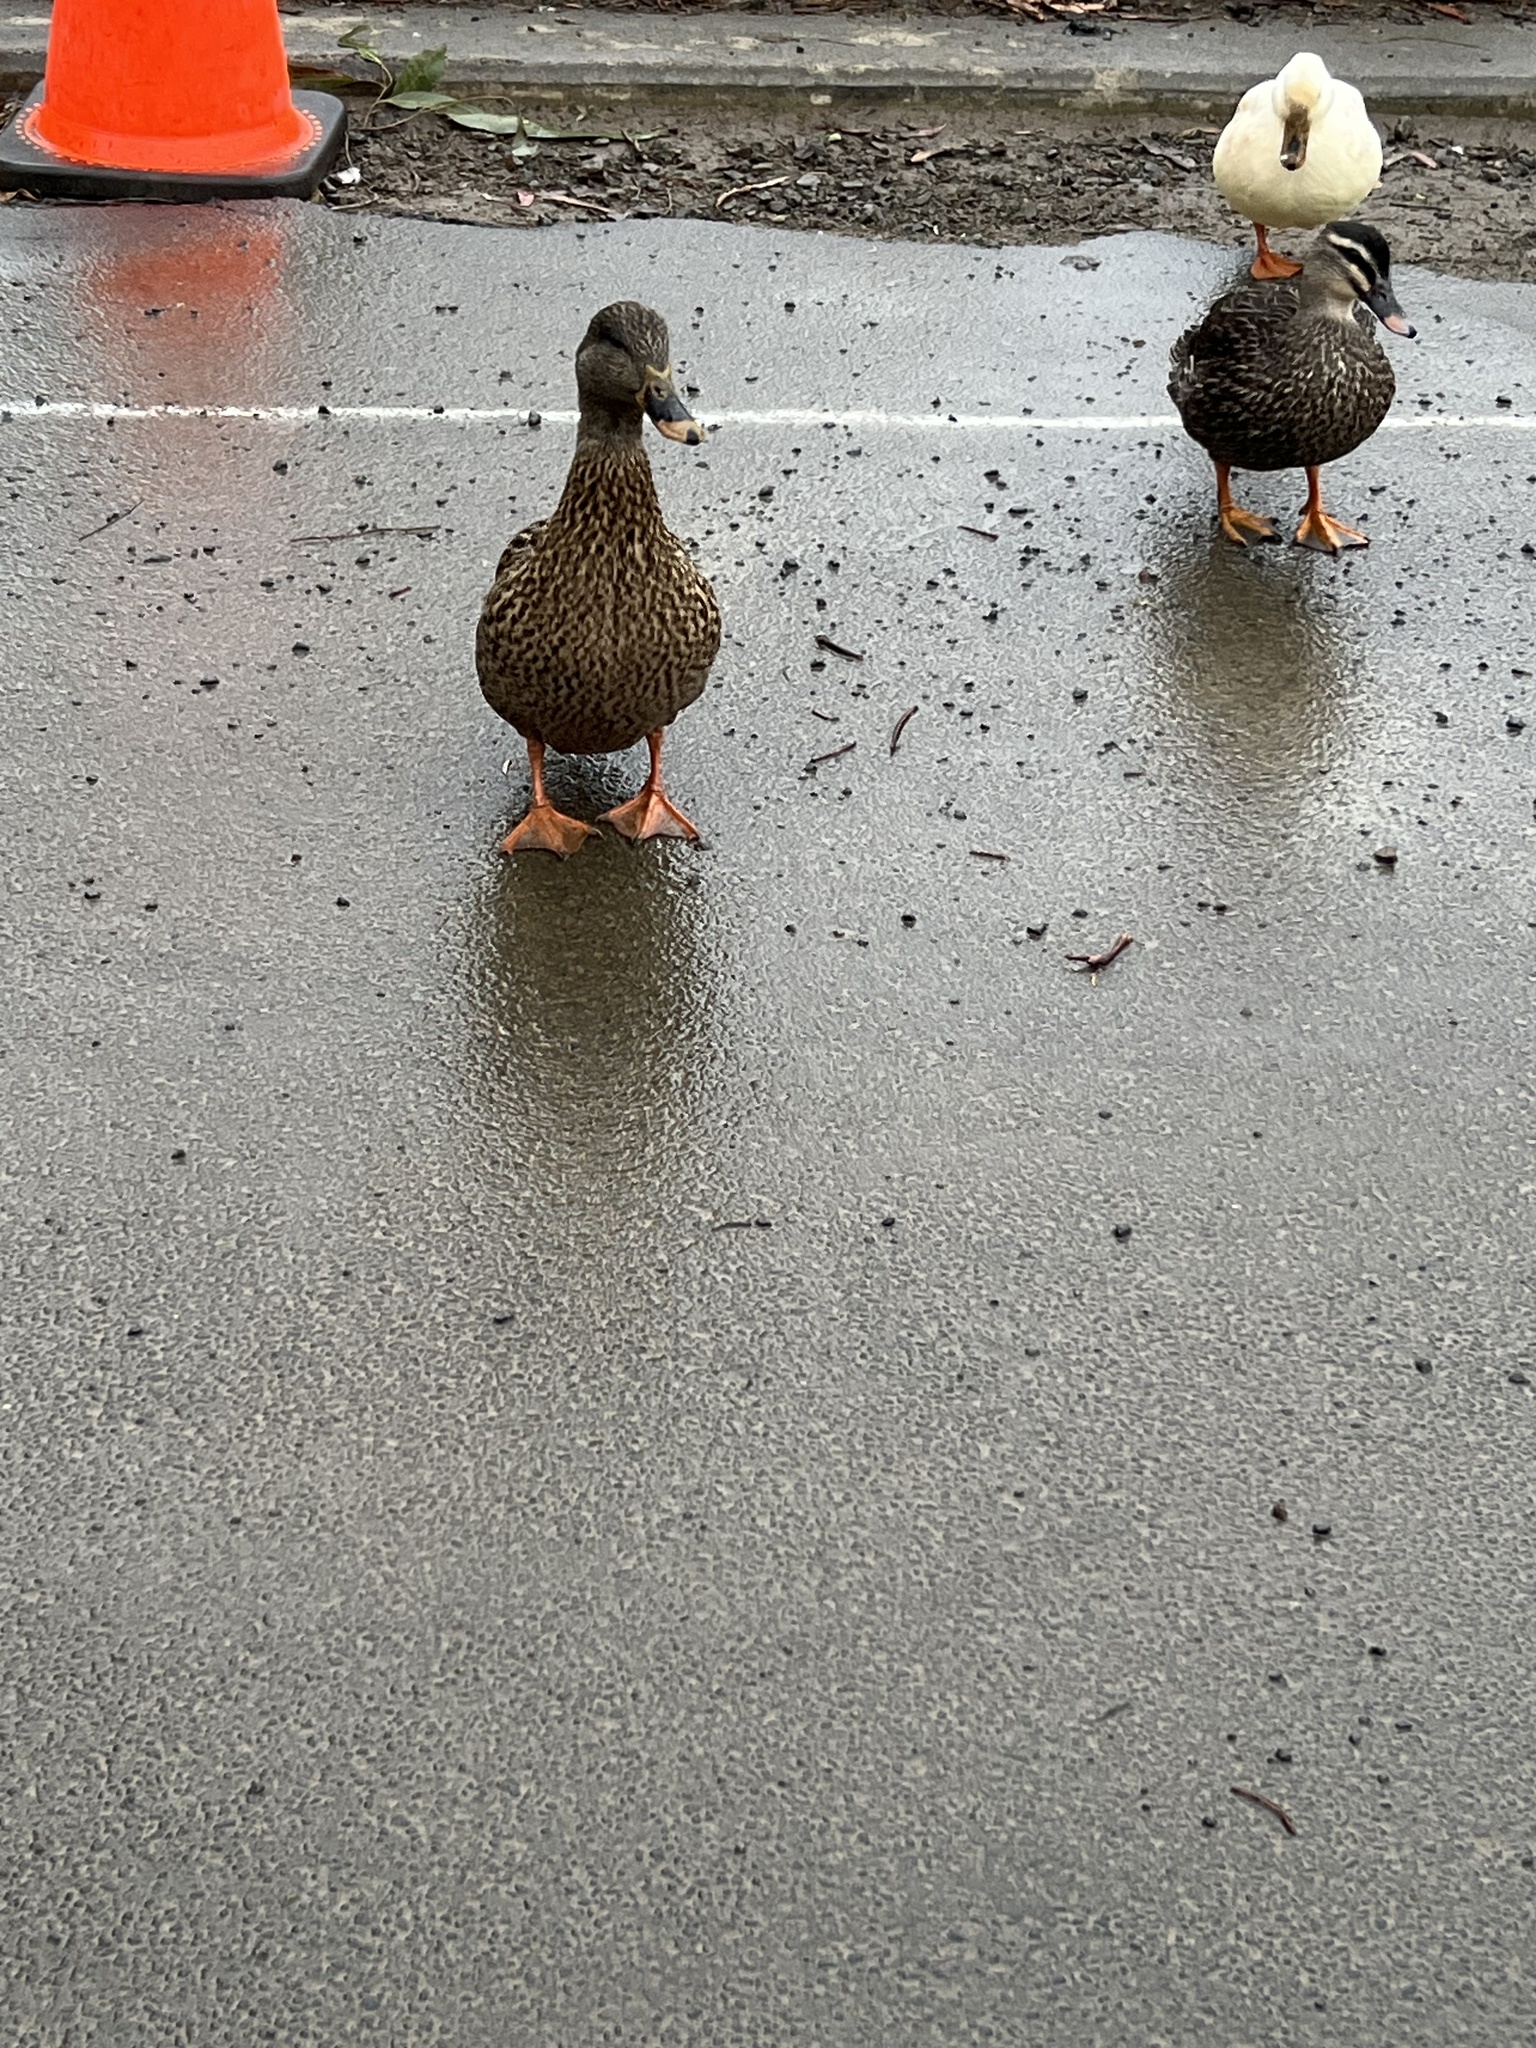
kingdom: Animalia
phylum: Chordata
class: Aves
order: Anseriformes
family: Anatidae
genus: Anas
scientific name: Anas platyrhynchos
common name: Mallard
